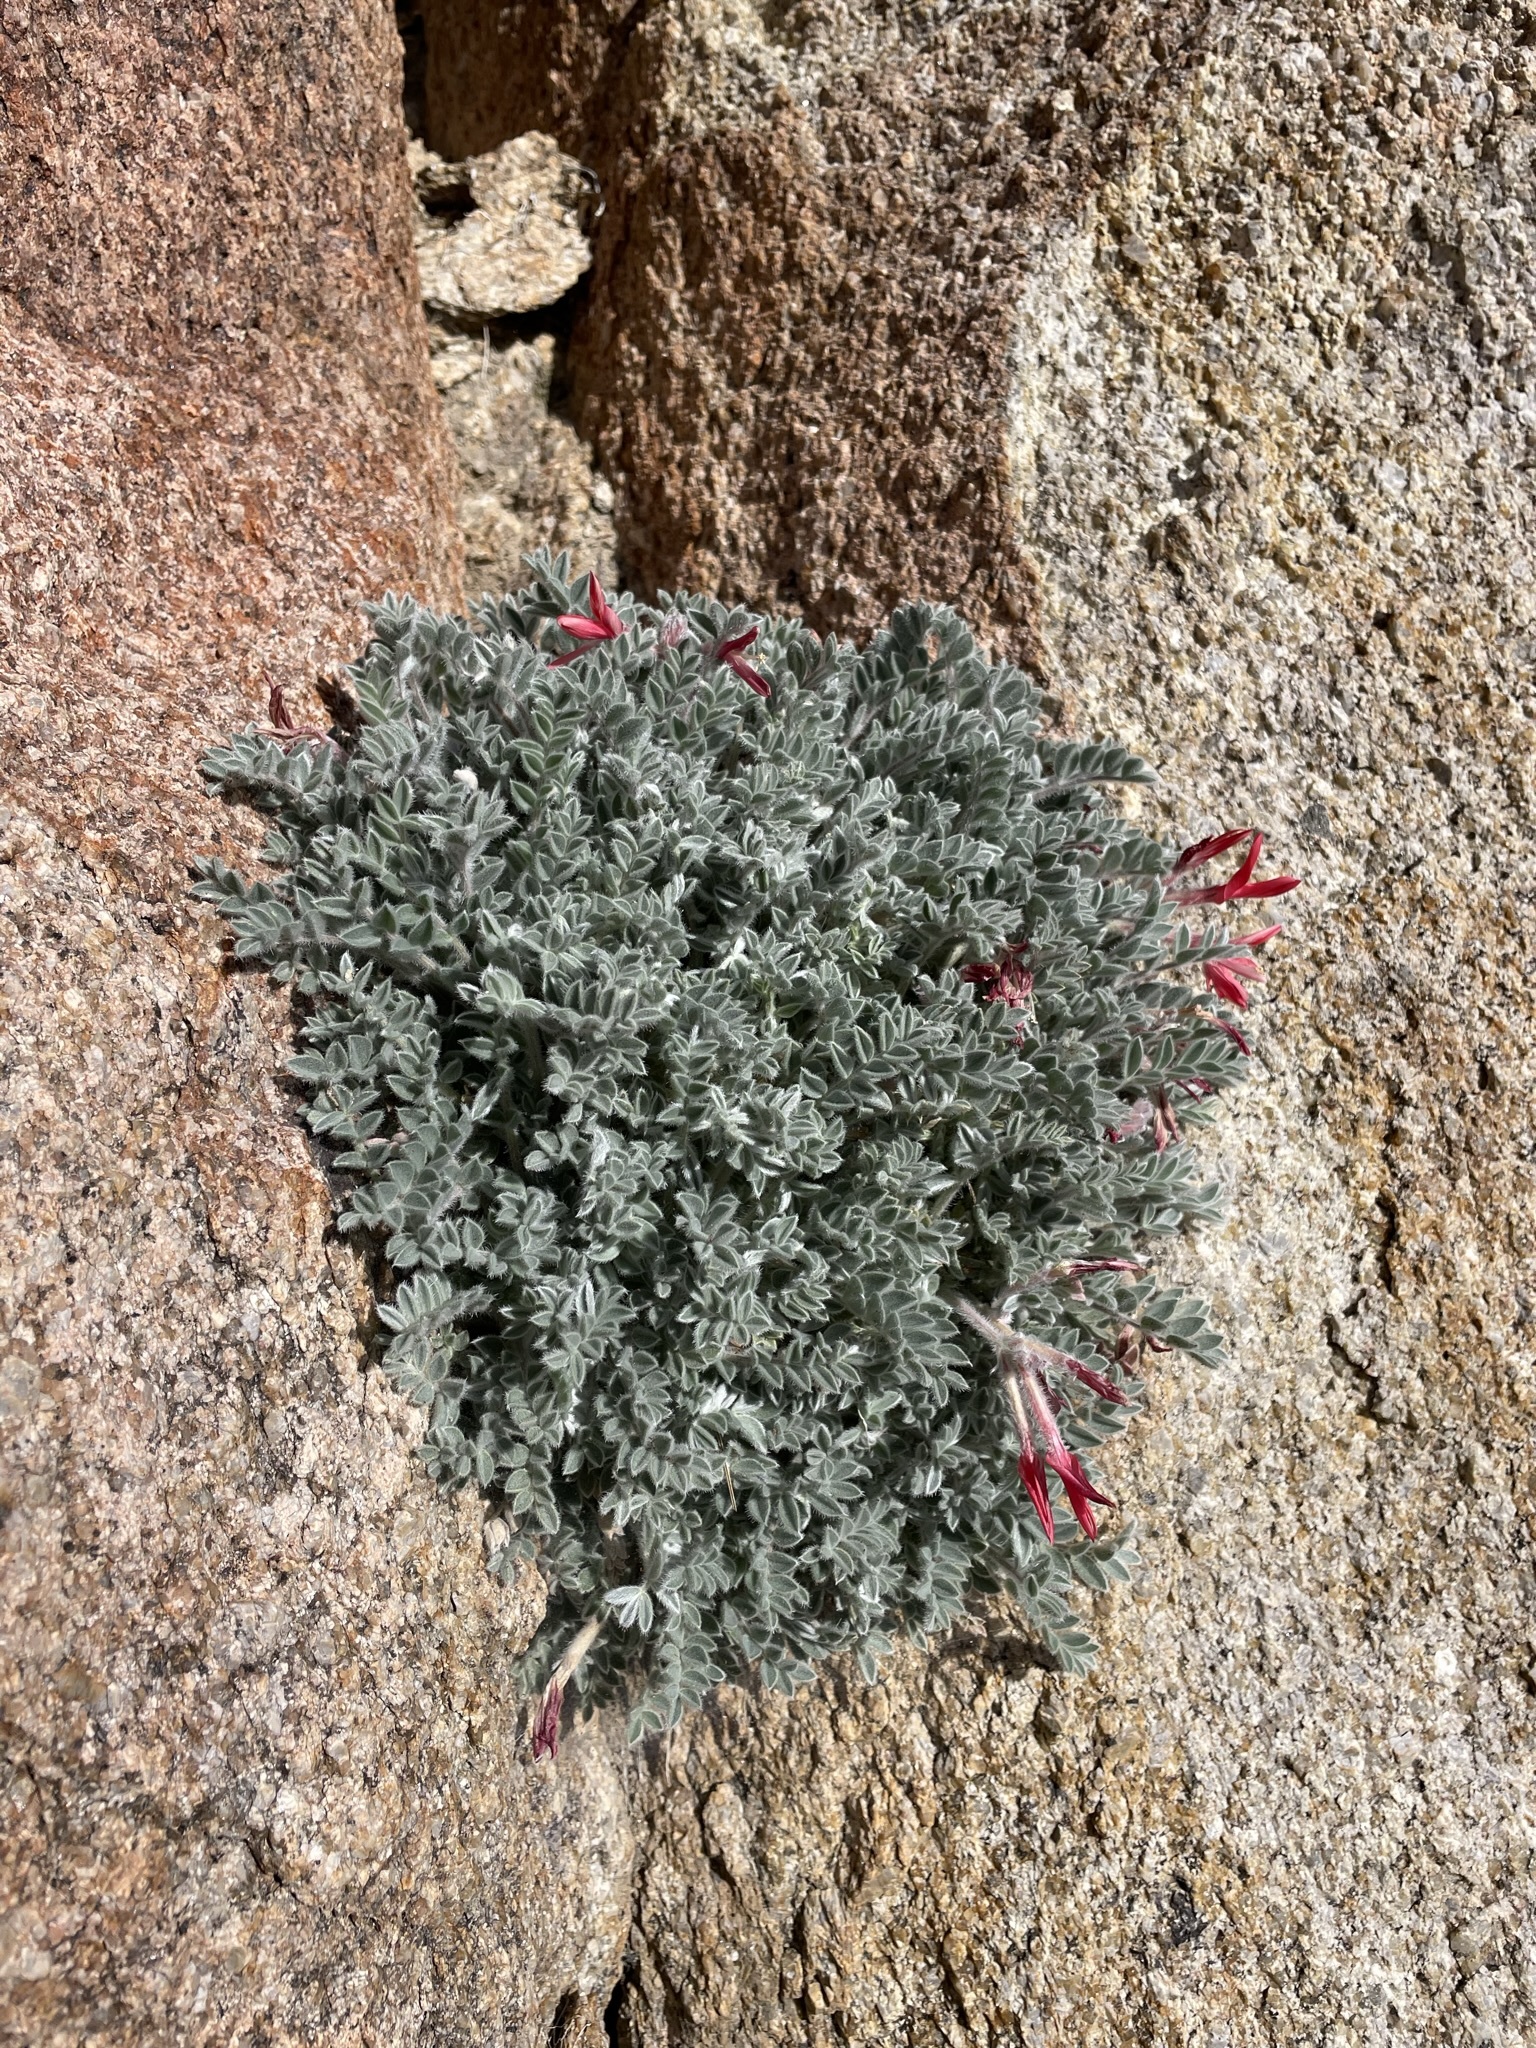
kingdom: Plantae
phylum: Tracheophyta
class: Magnoliopsida
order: Fabales
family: Fabaceae
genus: Astragalus
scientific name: Astragalus coccineus
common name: Scarlet milk-vetch
